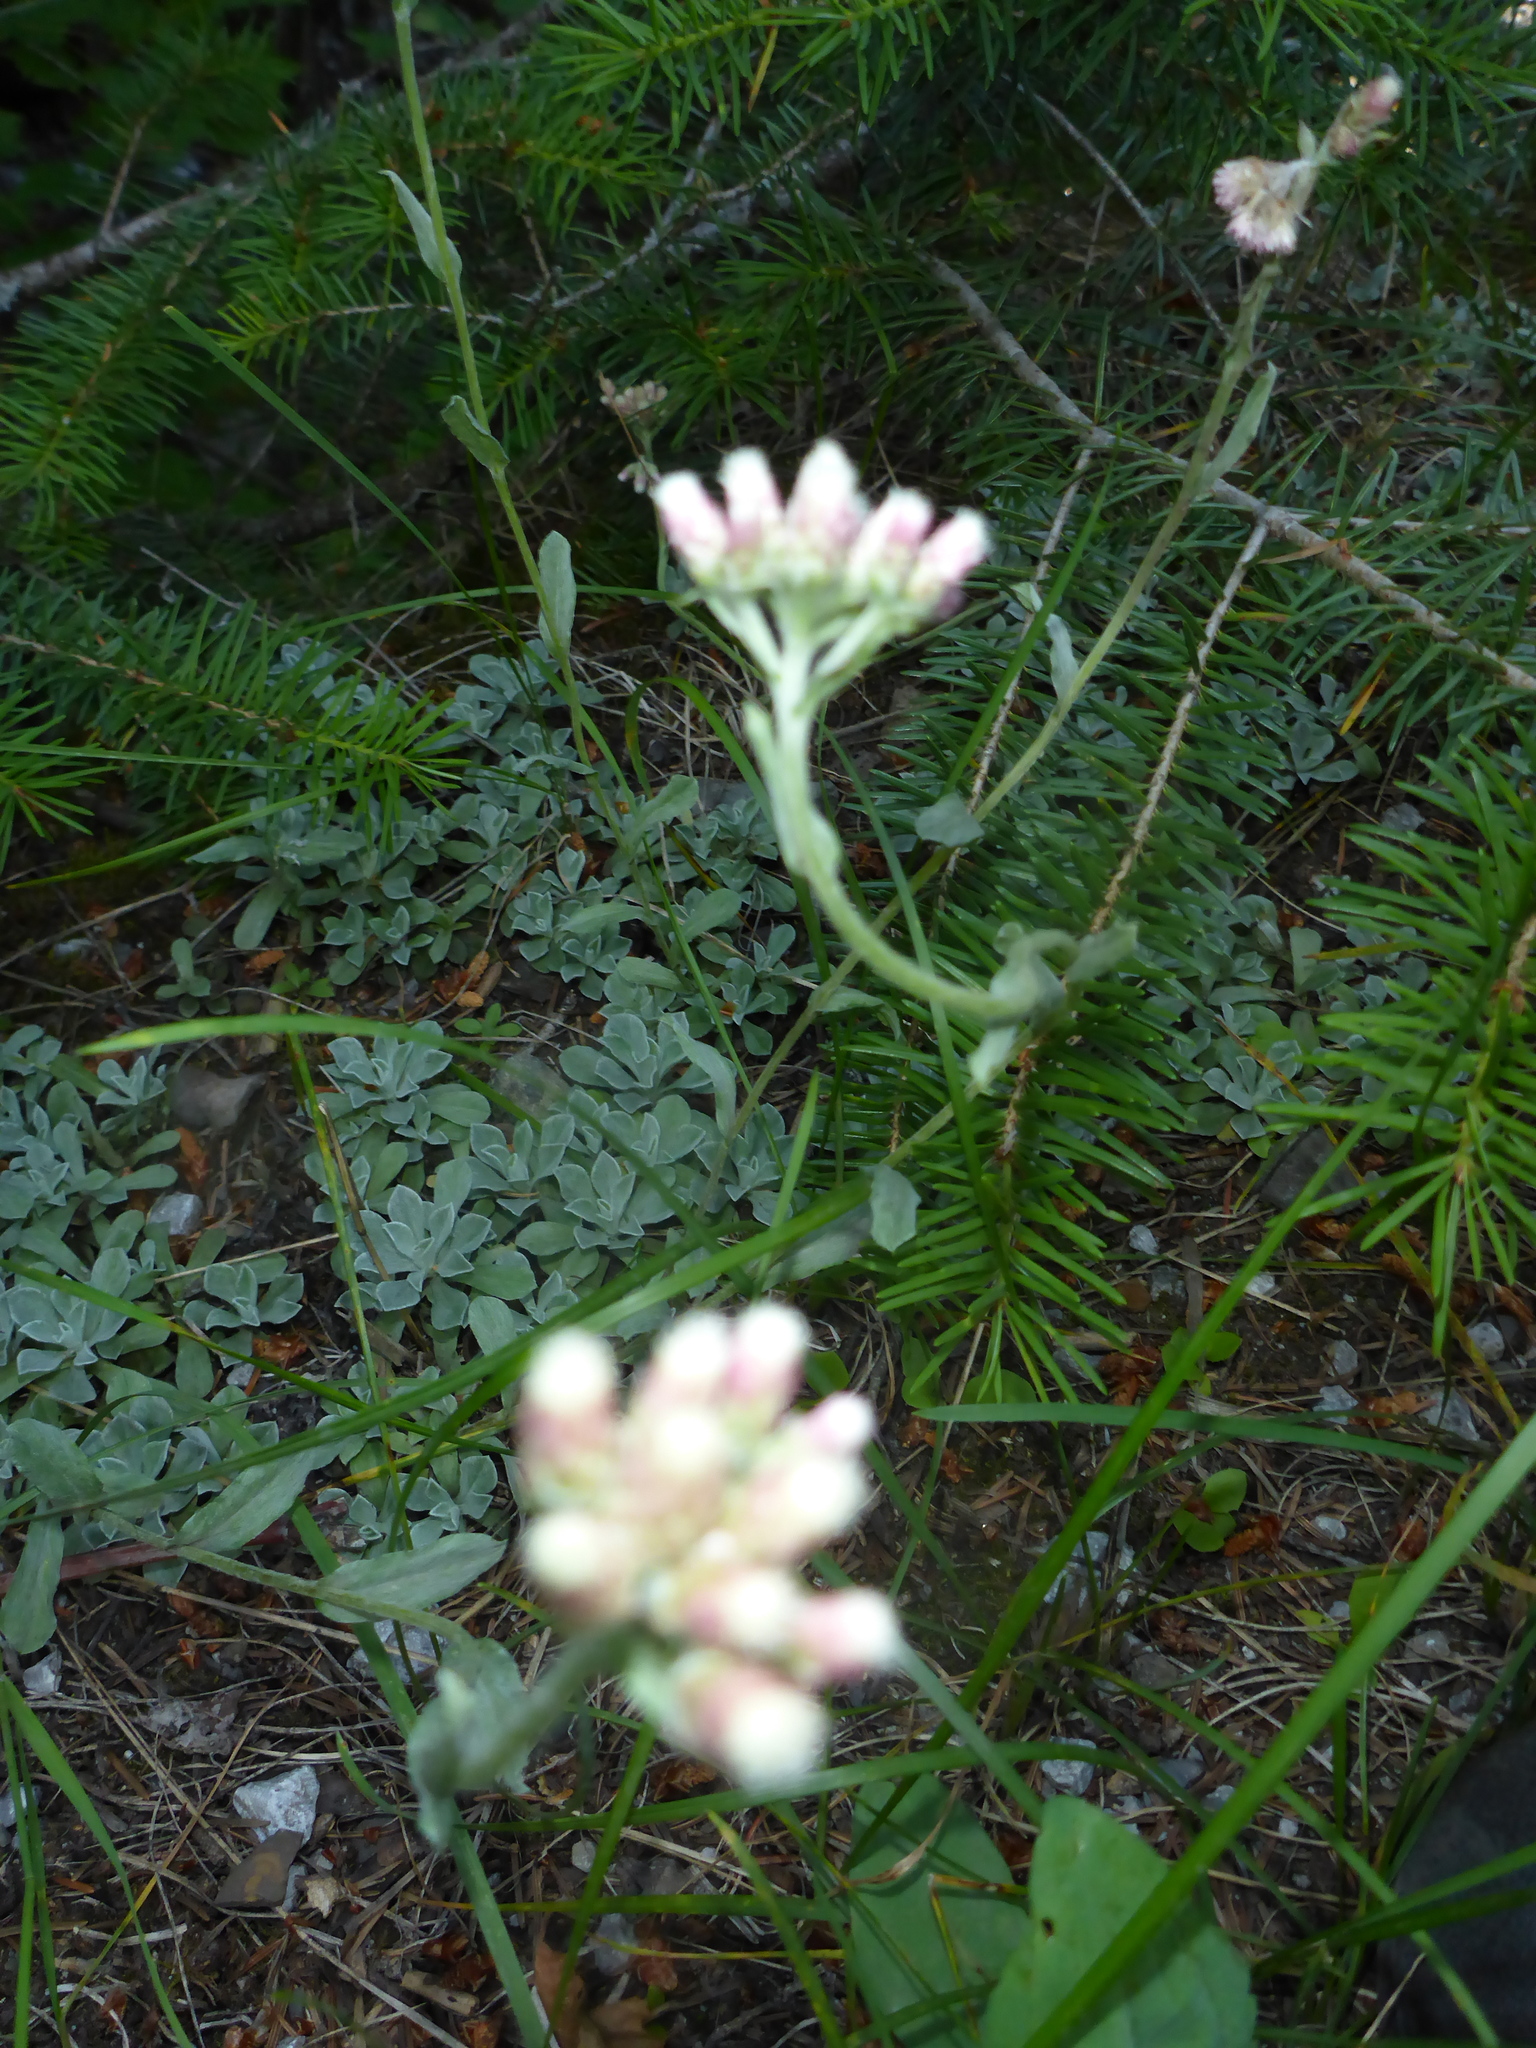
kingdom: Plantae
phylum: Tracheophyta
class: Magnoliopsida
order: Asterales
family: Asteraceae
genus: Antennaria
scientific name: Antennaria rosea
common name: Rosy pussytoes
